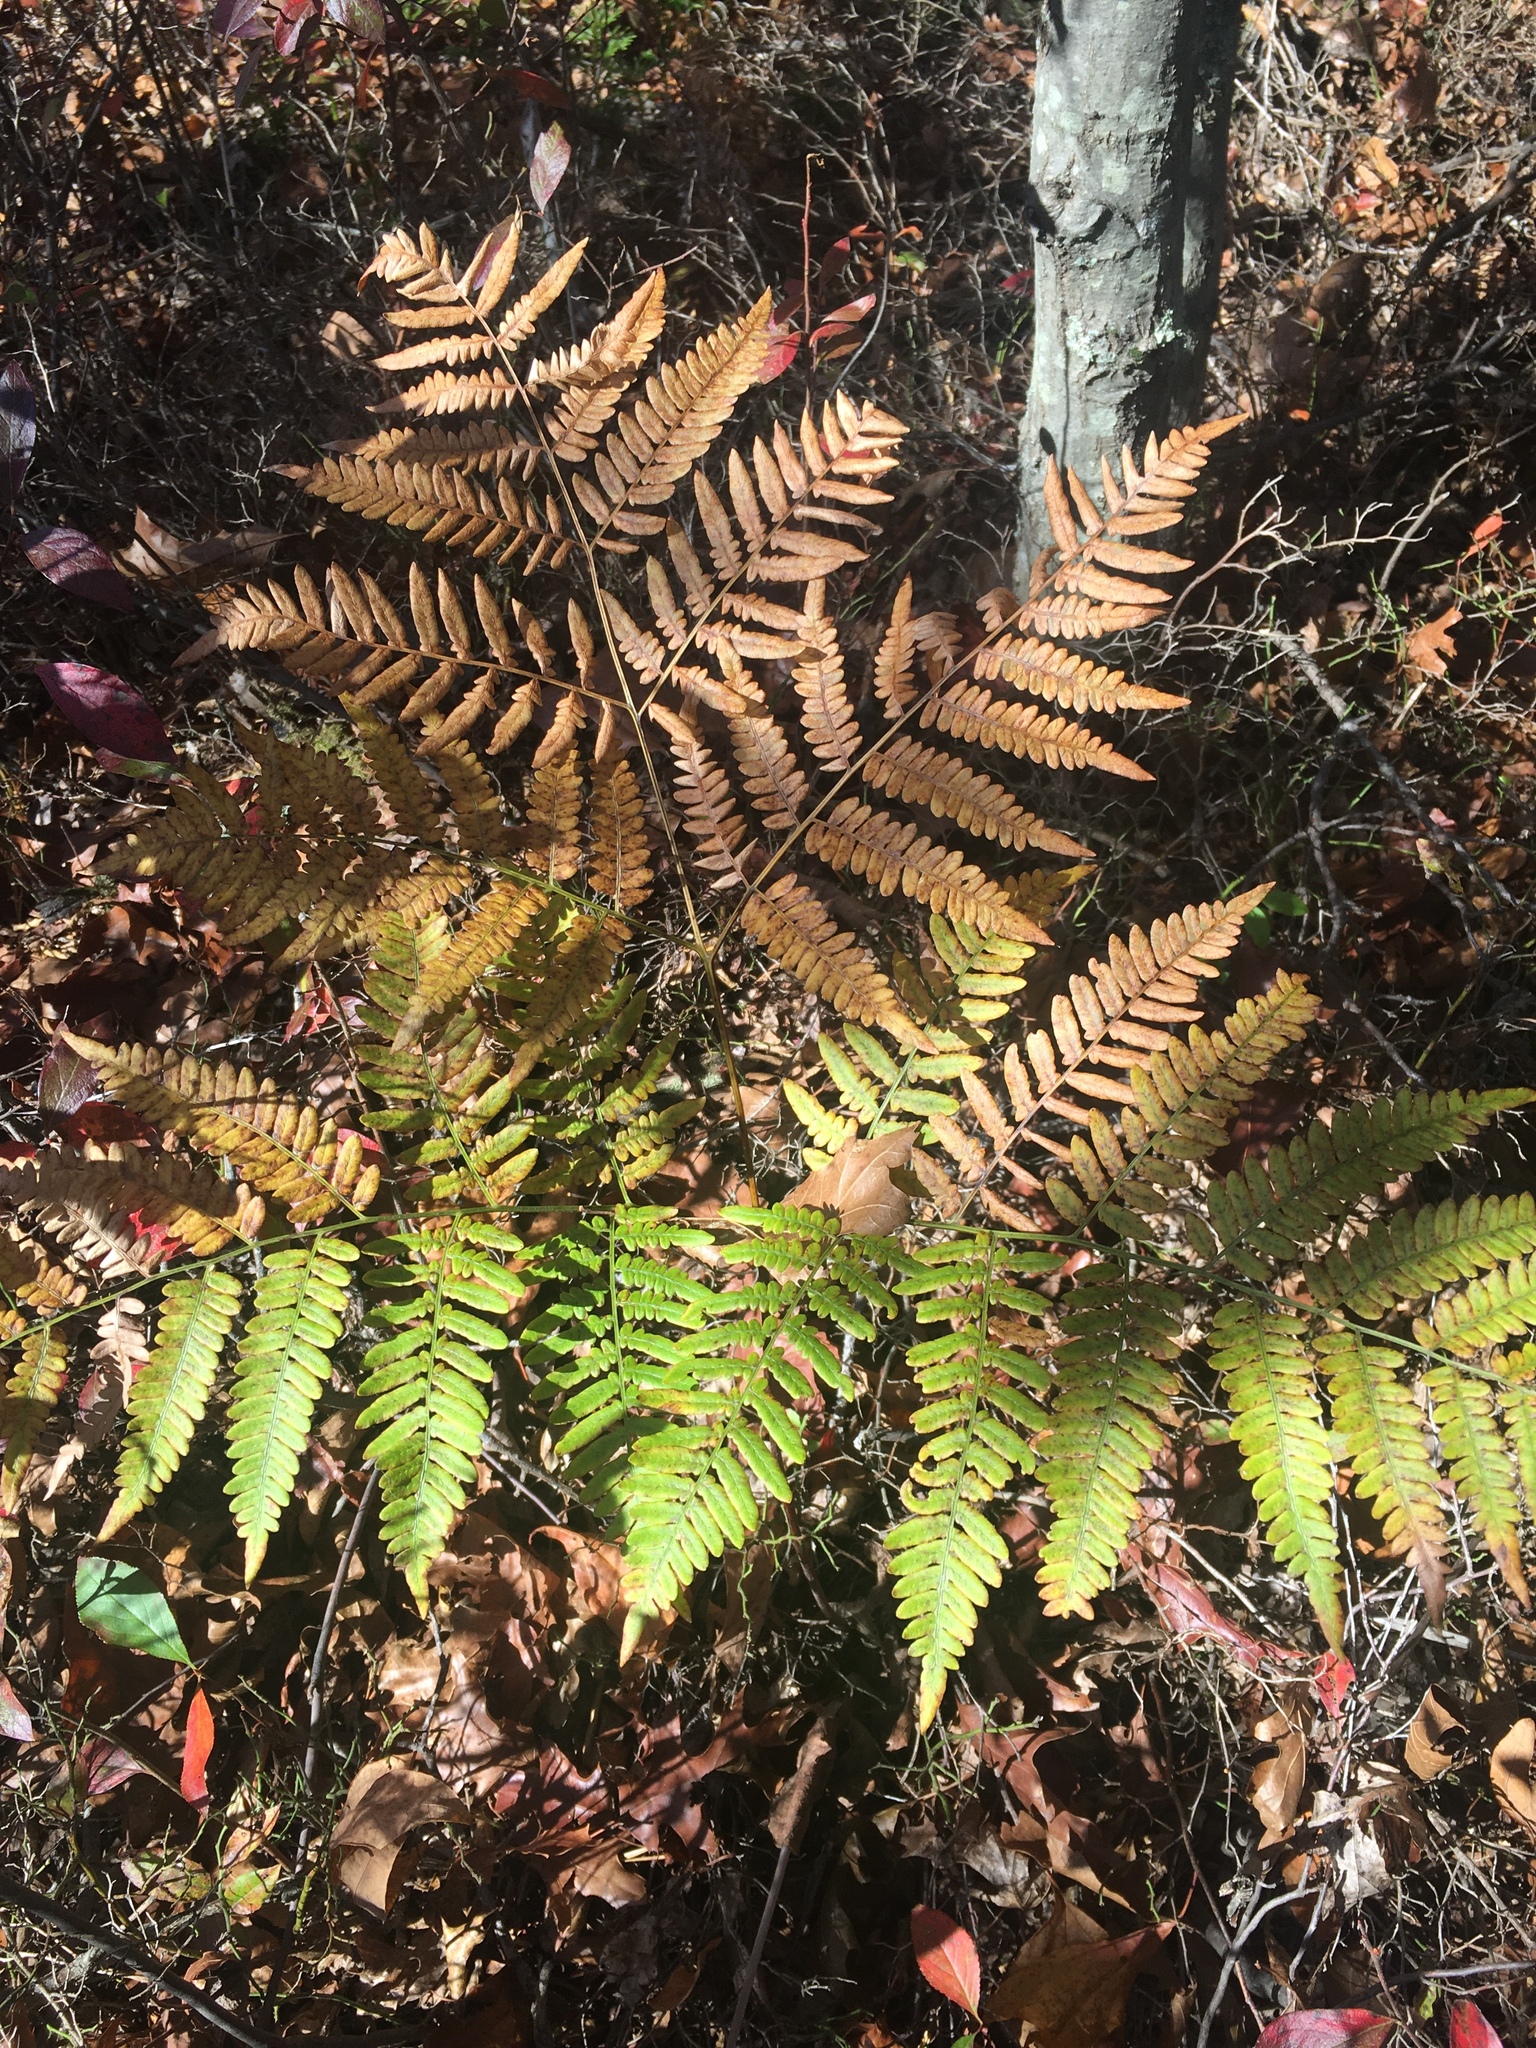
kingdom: Plantae
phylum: Tracheophyta
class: Polypodiopsida
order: Polypodiales
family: Dennstaedtiaceae
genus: Pteridium
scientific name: Pteridium aquilinum
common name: Bracken
